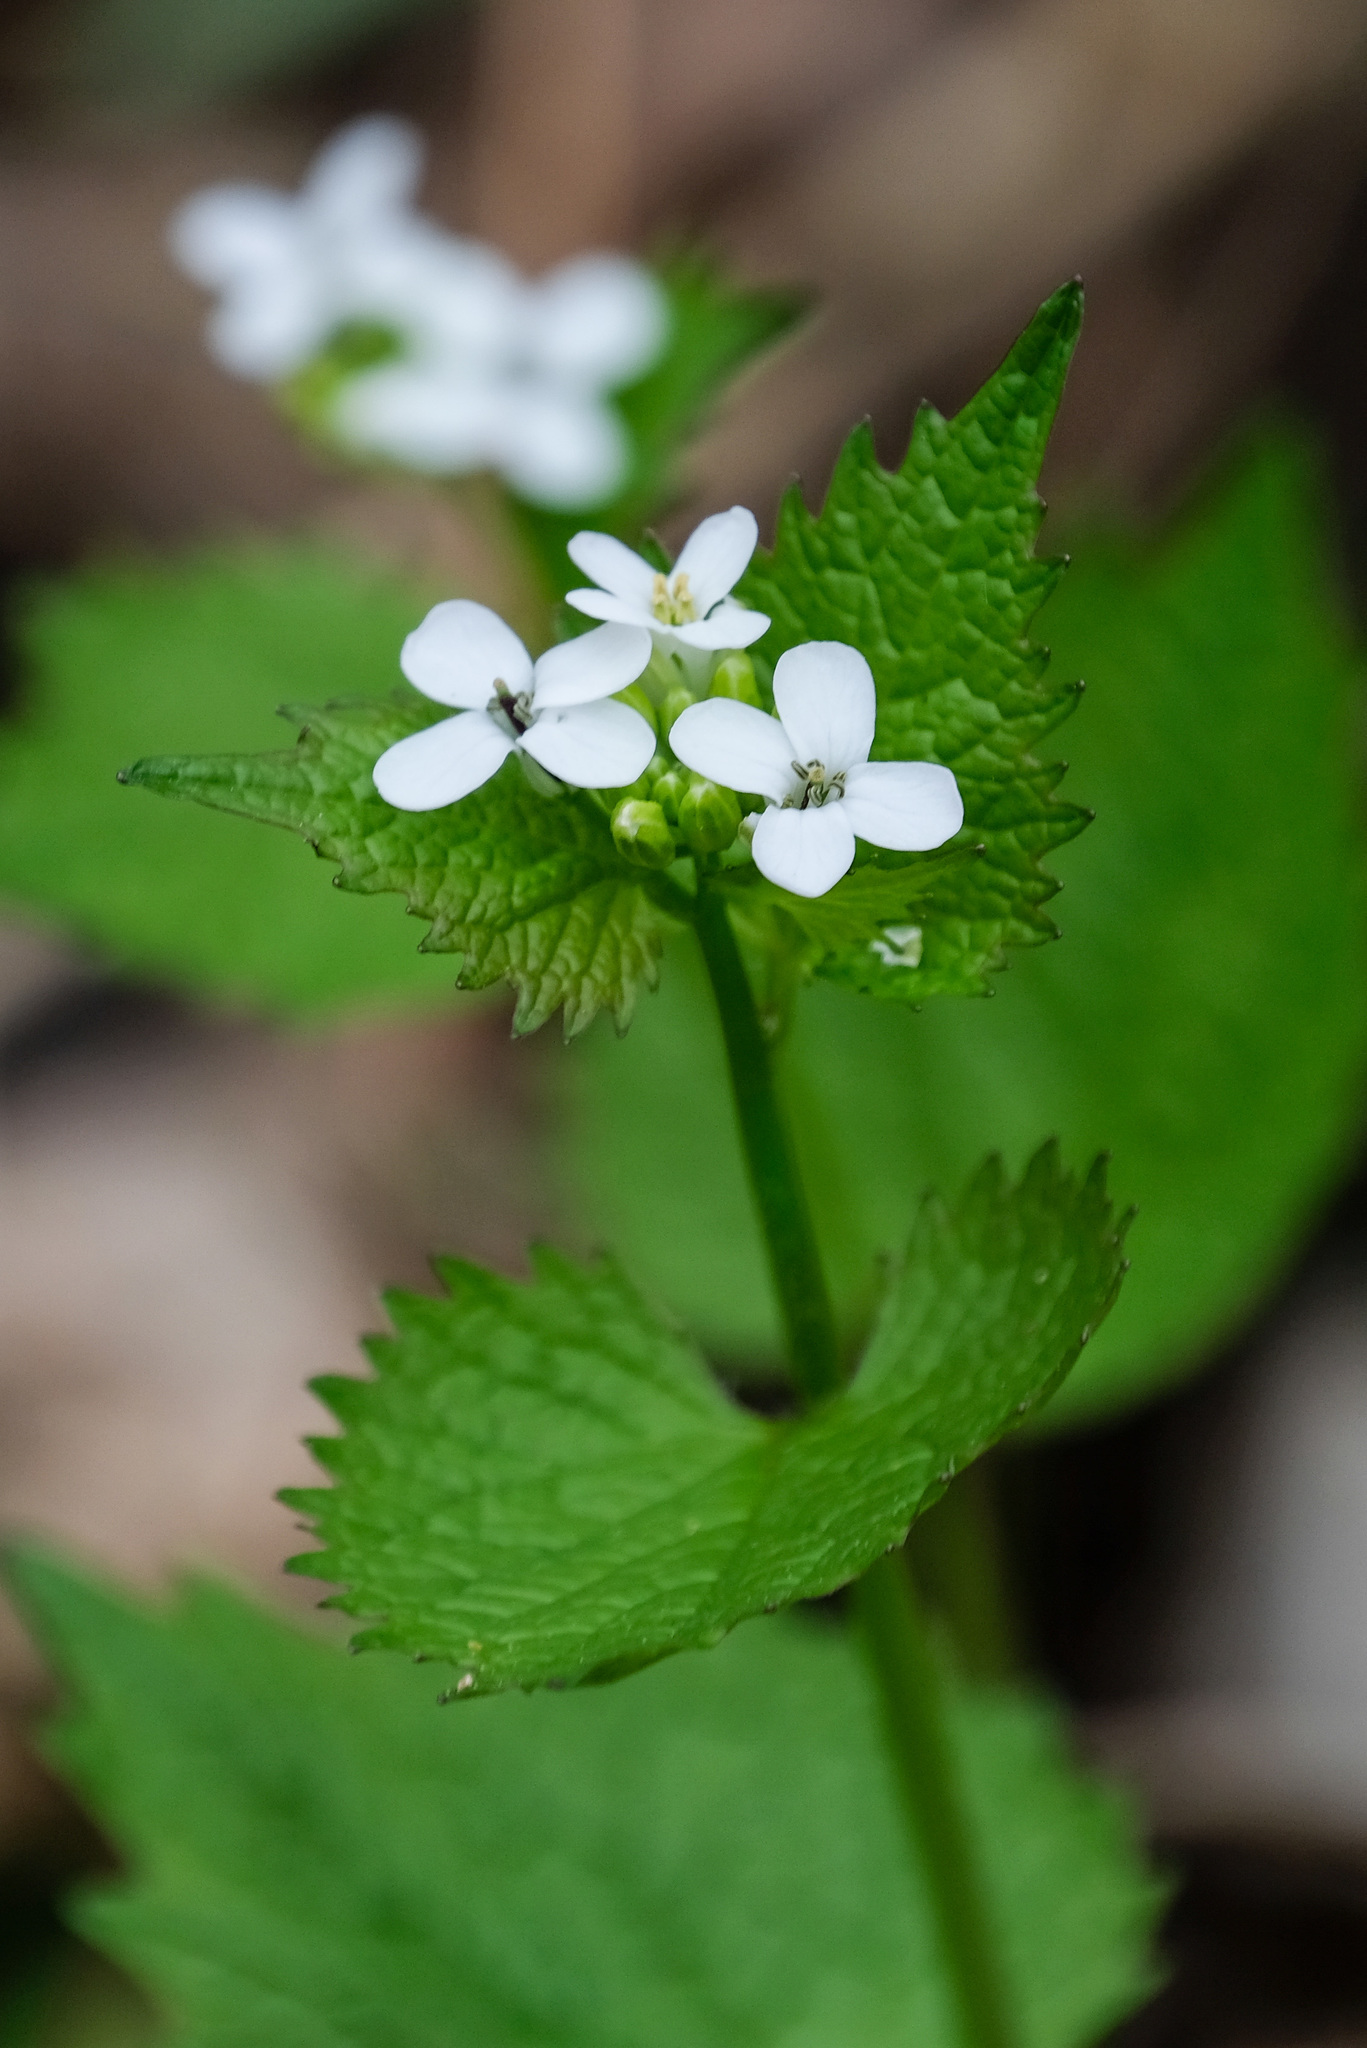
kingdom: Plantae
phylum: Tracheophyta
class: Magnoliopsida
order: Brassicales
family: Brassicaceae
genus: Alliaria
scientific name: Alliaria petiolata
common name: Garlic mustard
